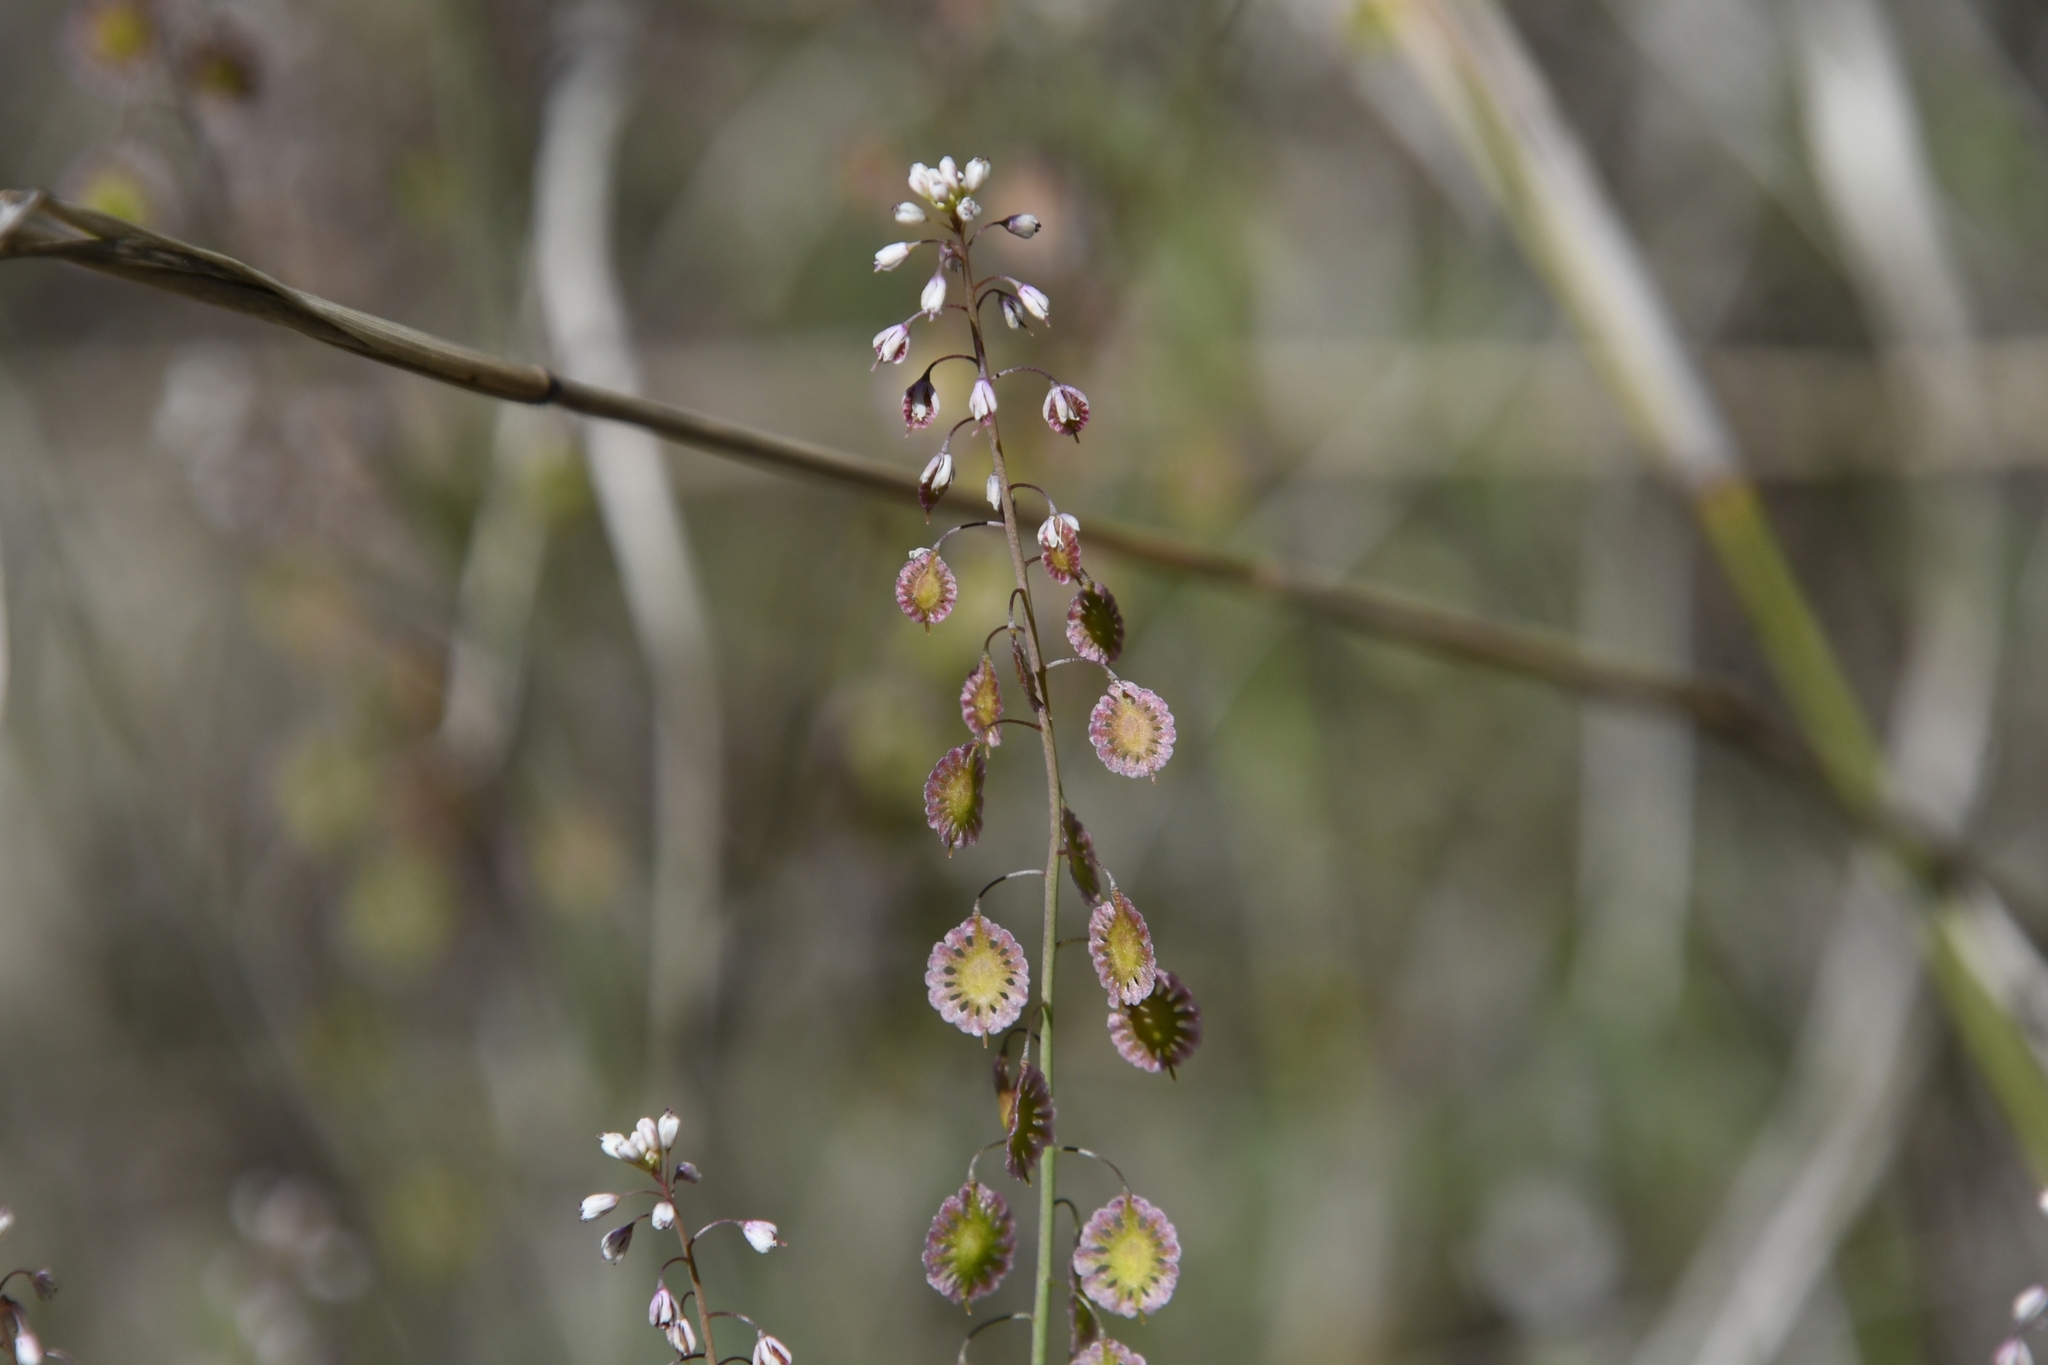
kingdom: Plantae
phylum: Tracheophyta
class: Magnoliopsida
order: Brassicales
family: Brassicaceae
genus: Thysanocarpus
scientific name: Thysanocarpus curvipes
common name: Sand fringepod
